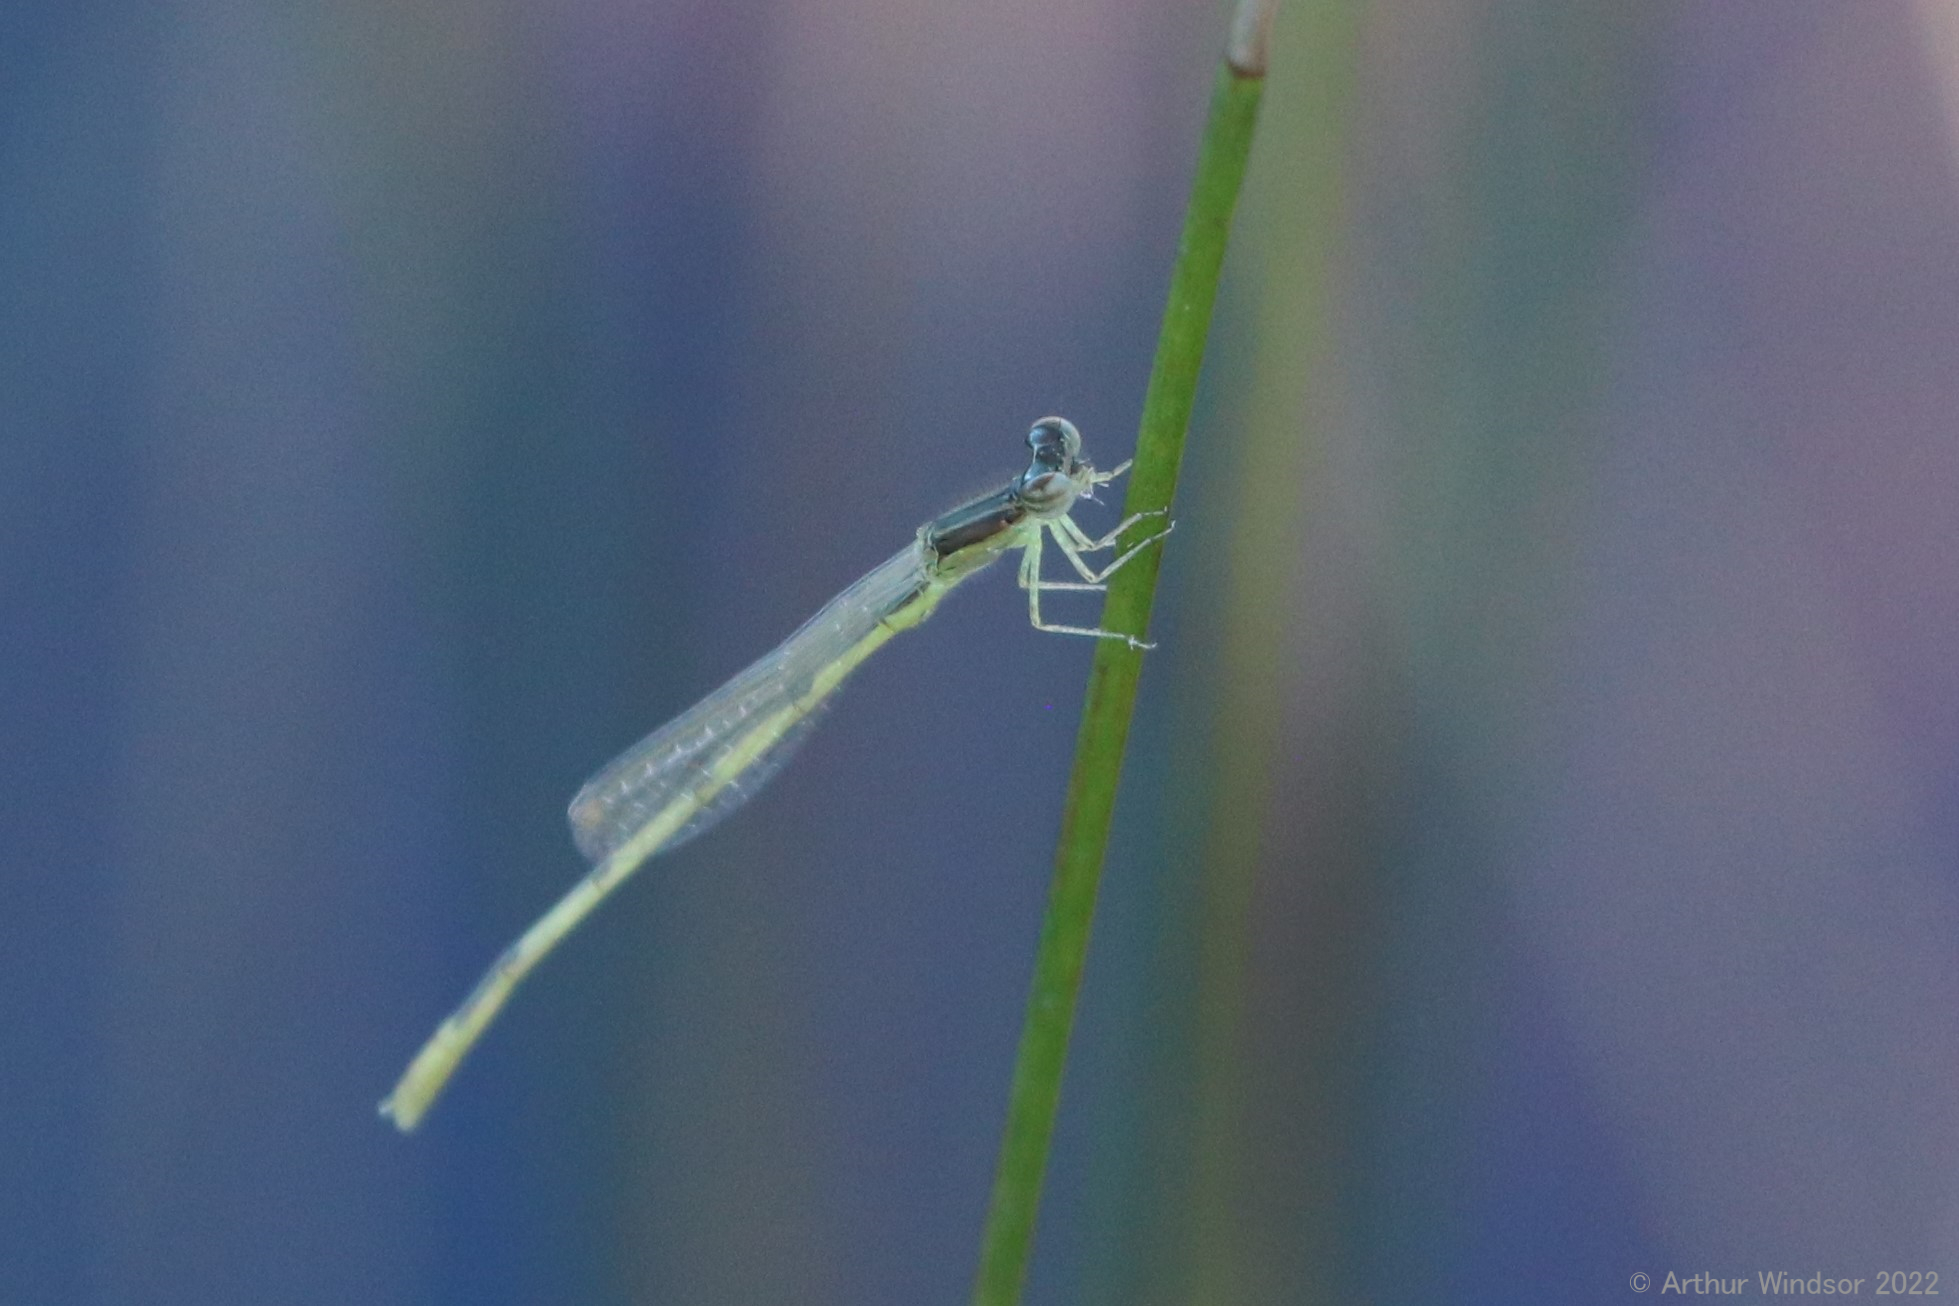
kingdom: Animalia
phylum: Arthropoda
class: Insecta
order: Odonata
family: Coenagrionidae
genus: Ischnura
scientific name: Ischnura hastata
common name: Citrine forktail
